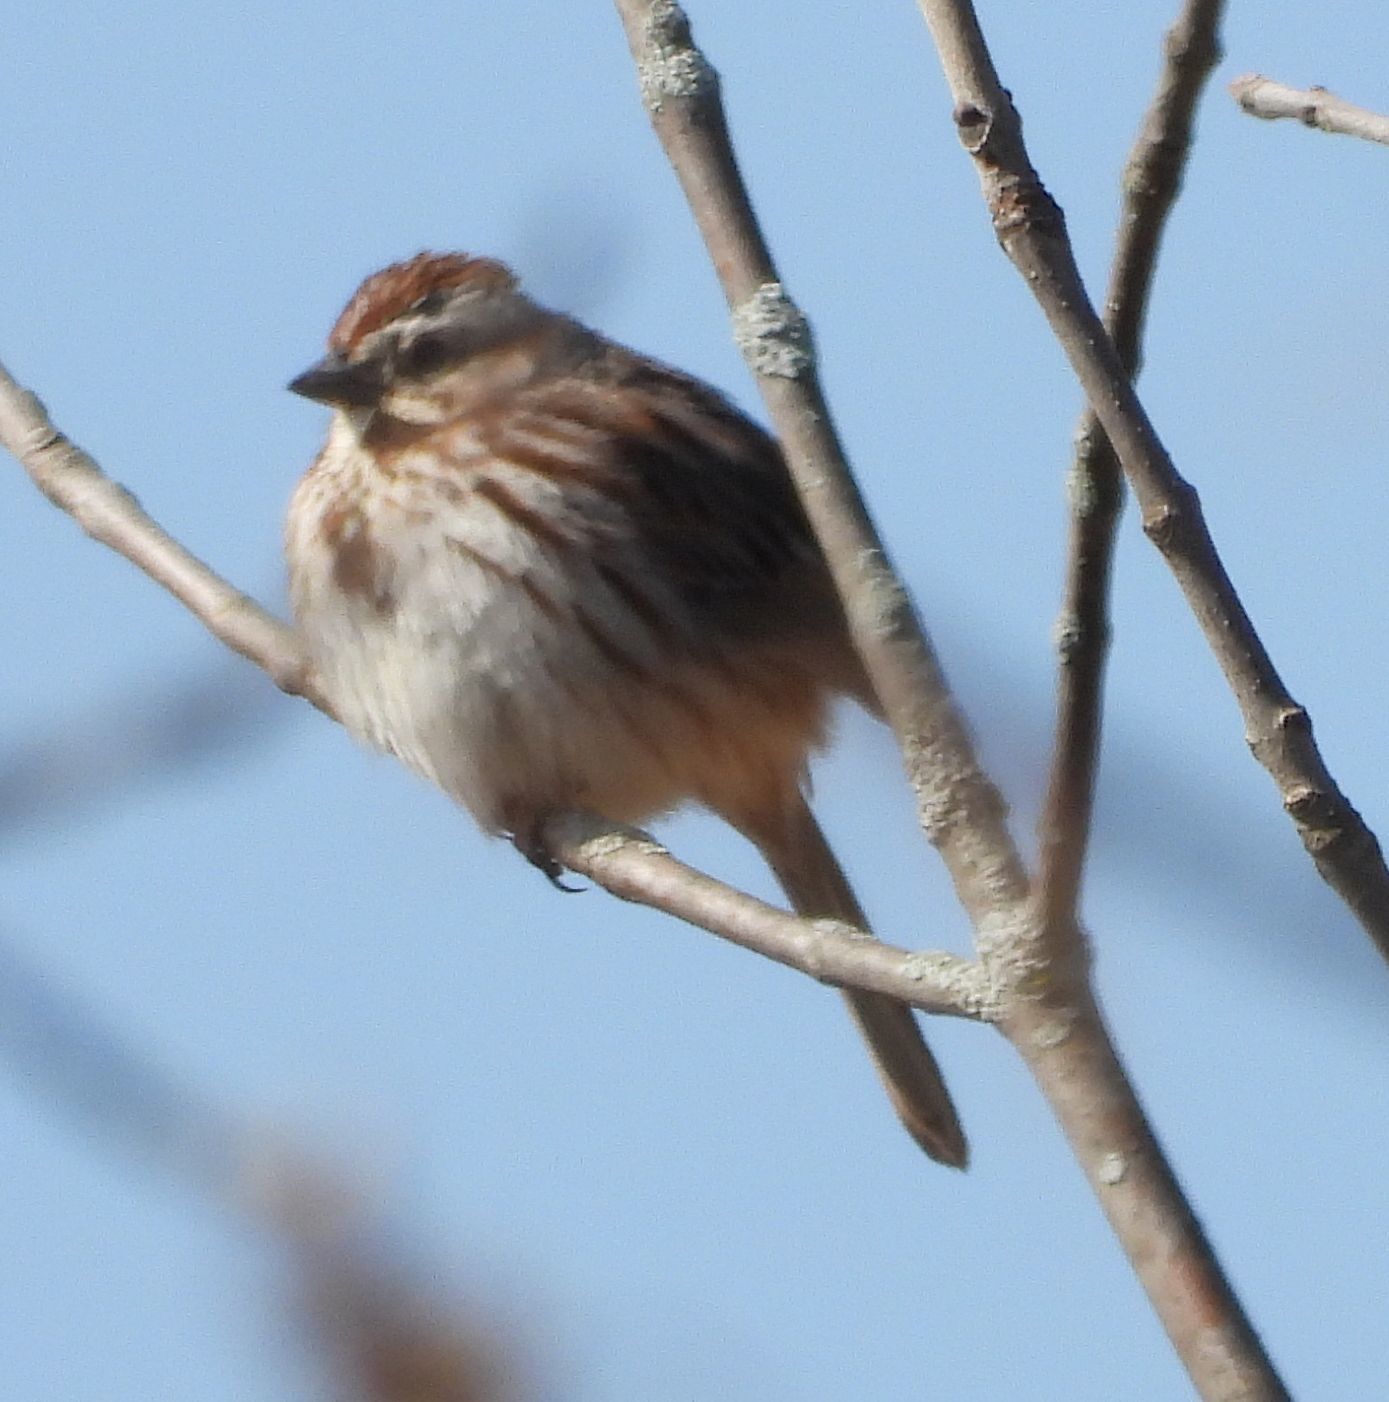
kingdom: Animalia
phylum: Chordata
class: Aves
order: Passeriformes
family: Passerellidae
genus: Melospiza
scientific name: Melospiza melodia
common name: Song sparrow
